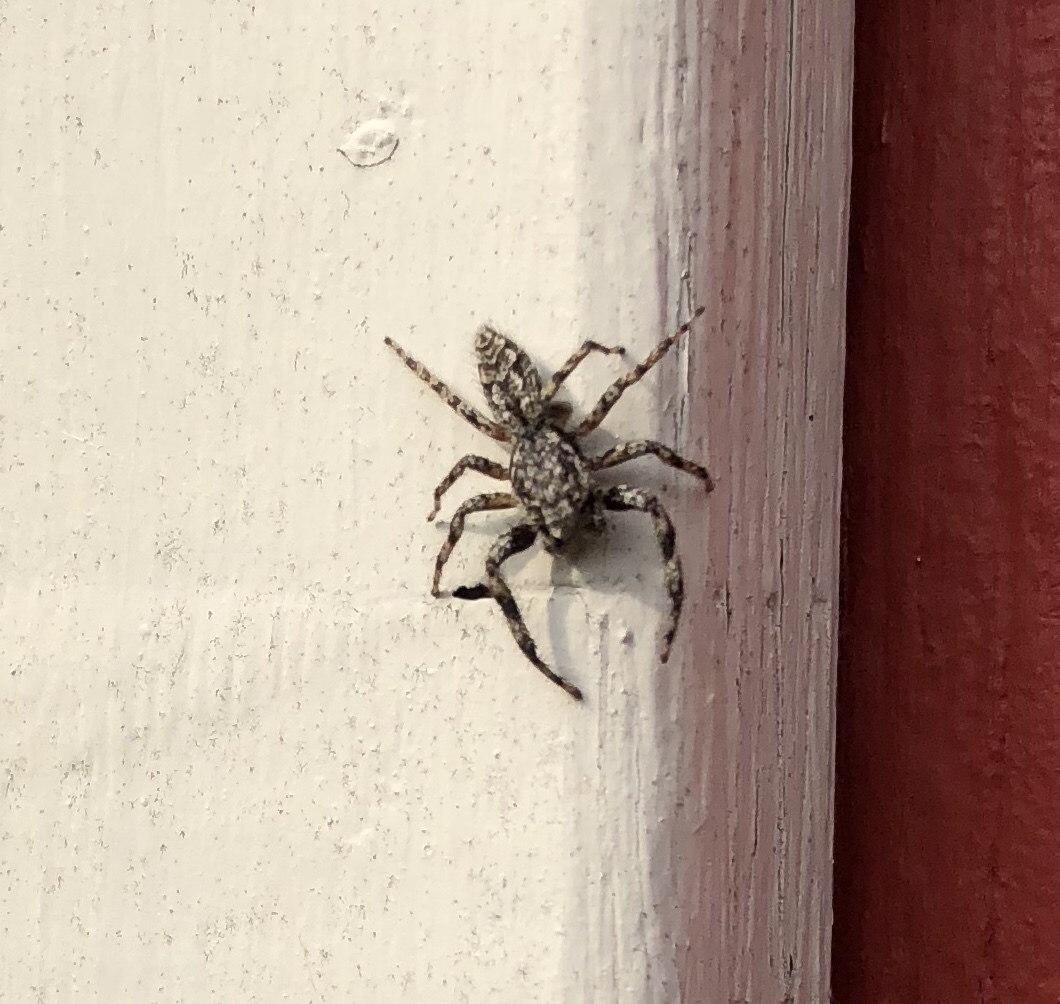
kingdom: Animalia
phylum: Arthropoda
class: Arachnida
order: Araneae
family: Salticidae
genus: Platycryptus
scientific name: Platycryptus undatus
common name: Tan jumping spider
